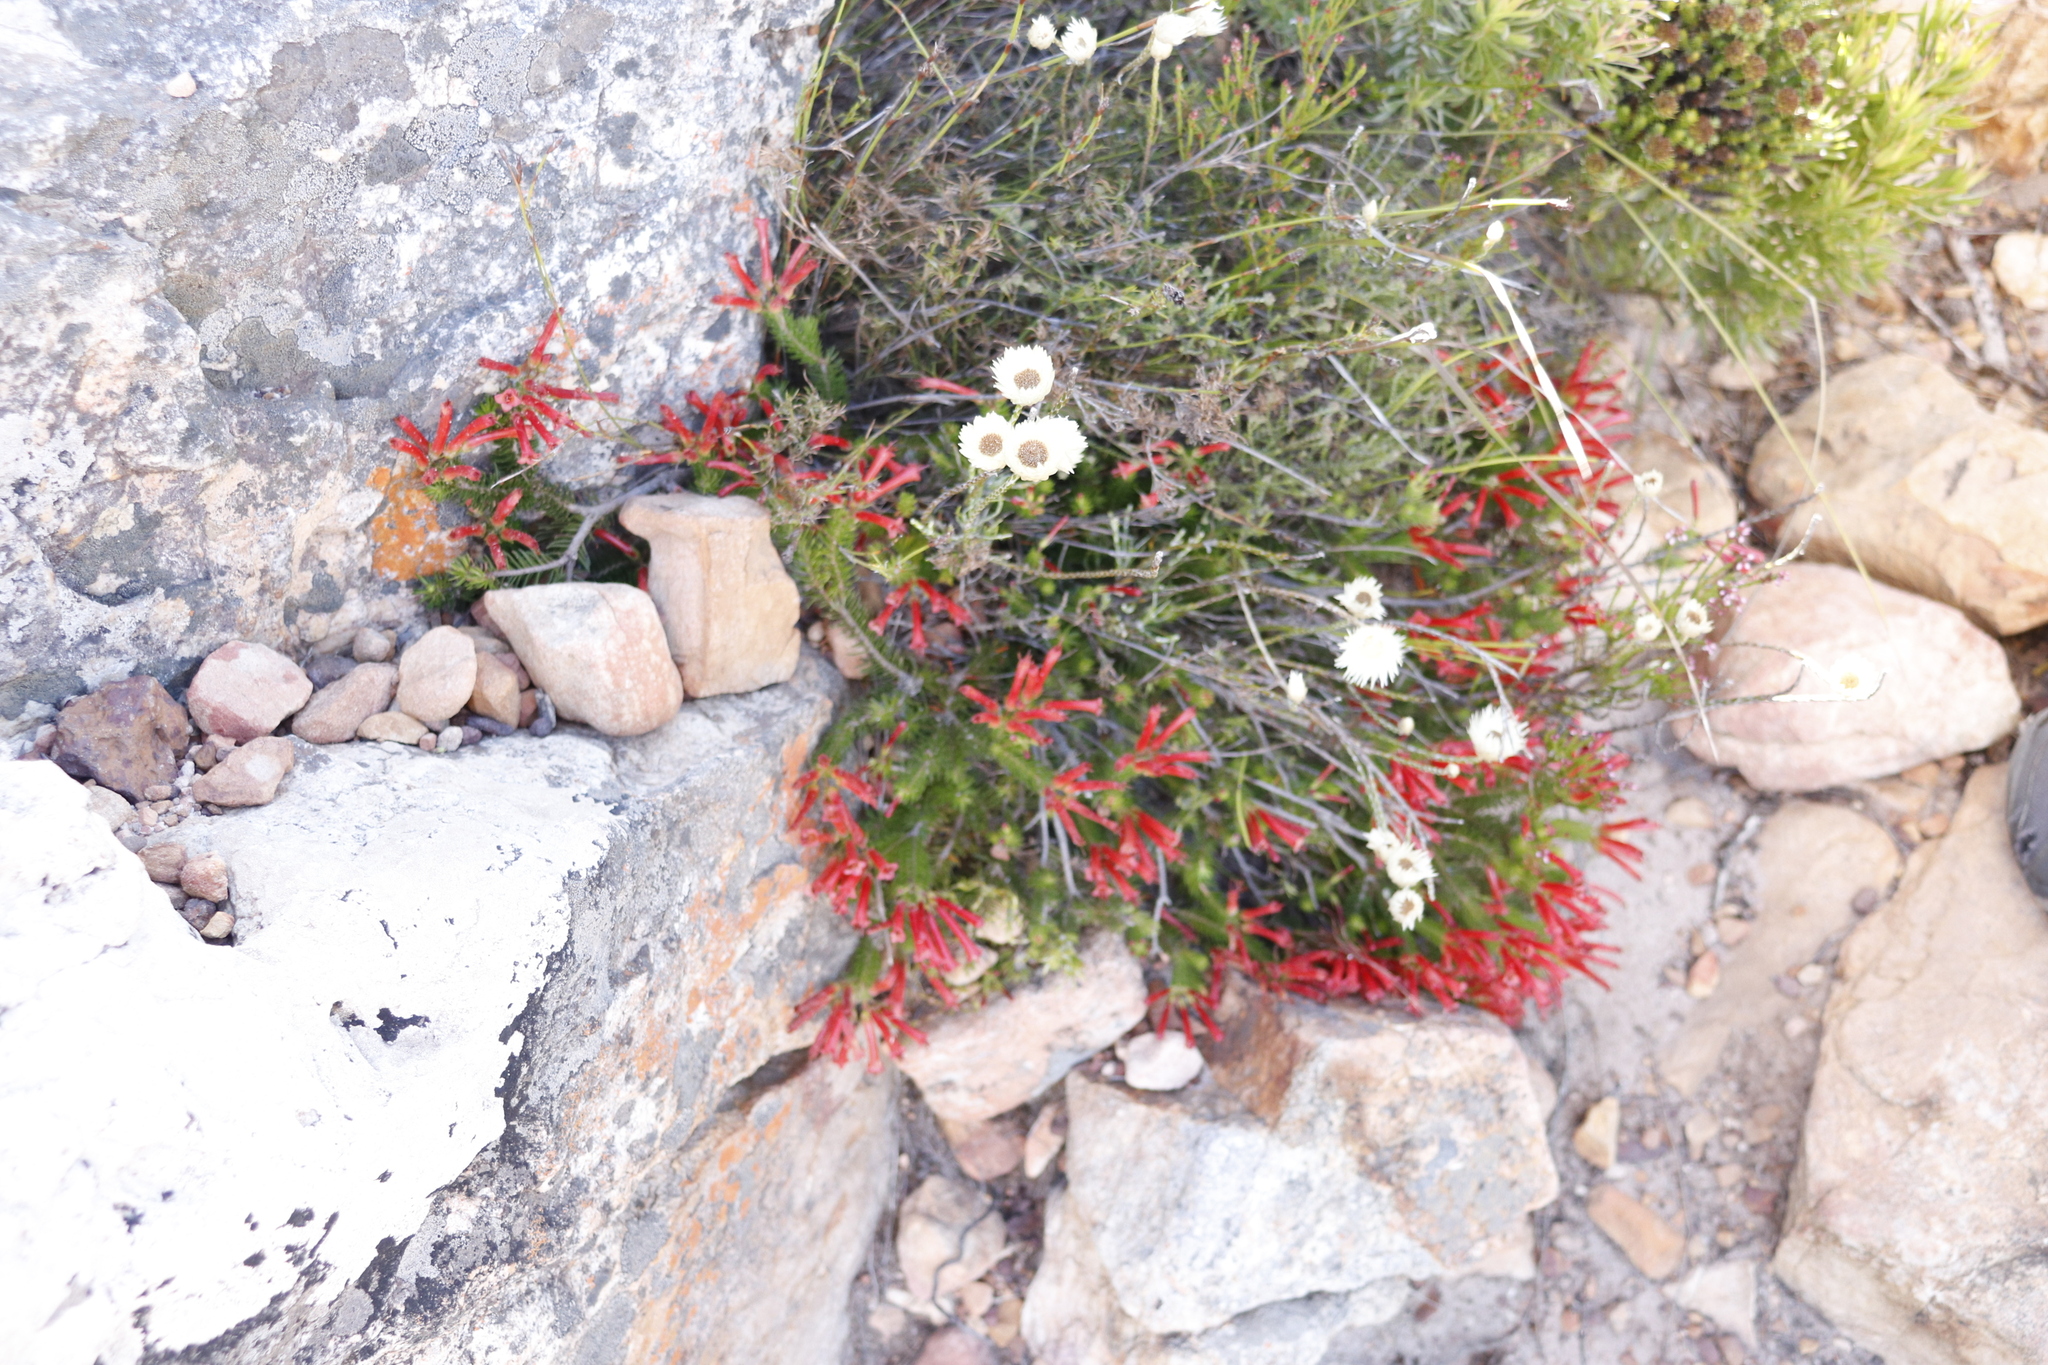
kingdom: Plantae
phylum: Tracheophyta
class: Magnoliopsida
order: Asterales
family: Asteraceae
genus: Edmondia
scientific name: Edmondia sesamoides
